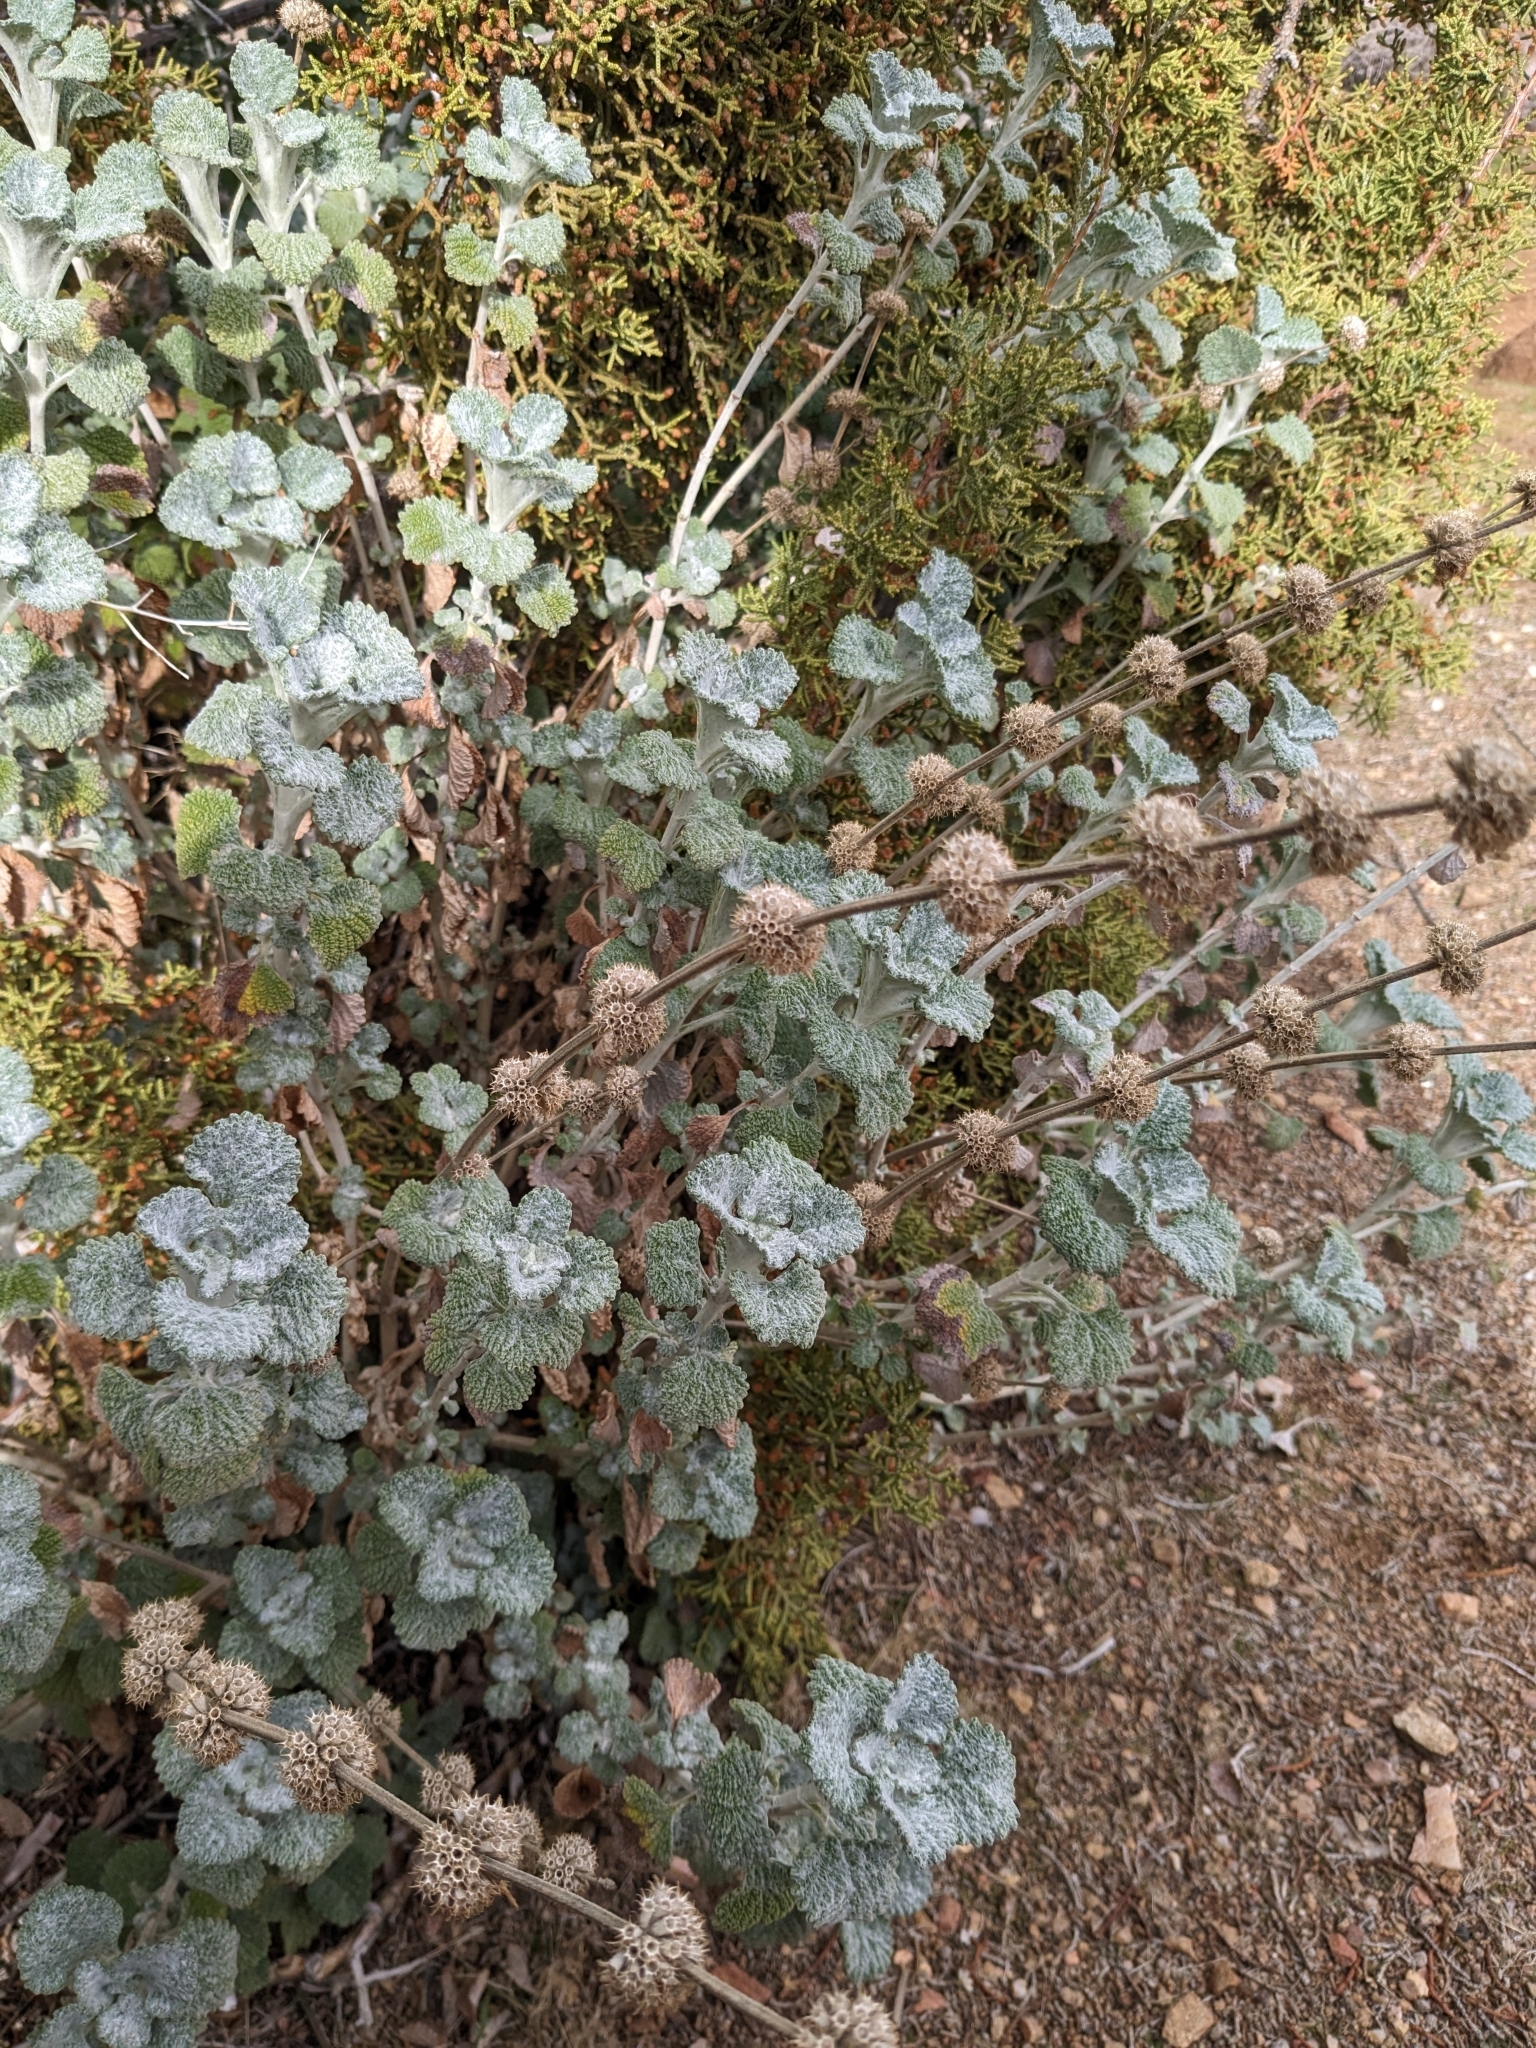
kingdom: Plantae
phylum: Tracheophyta
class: Magnoliopsida
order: Lamiales
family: Lamiaceae
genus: Marrubium
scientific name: Marrubium vulgare
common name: Horehound
